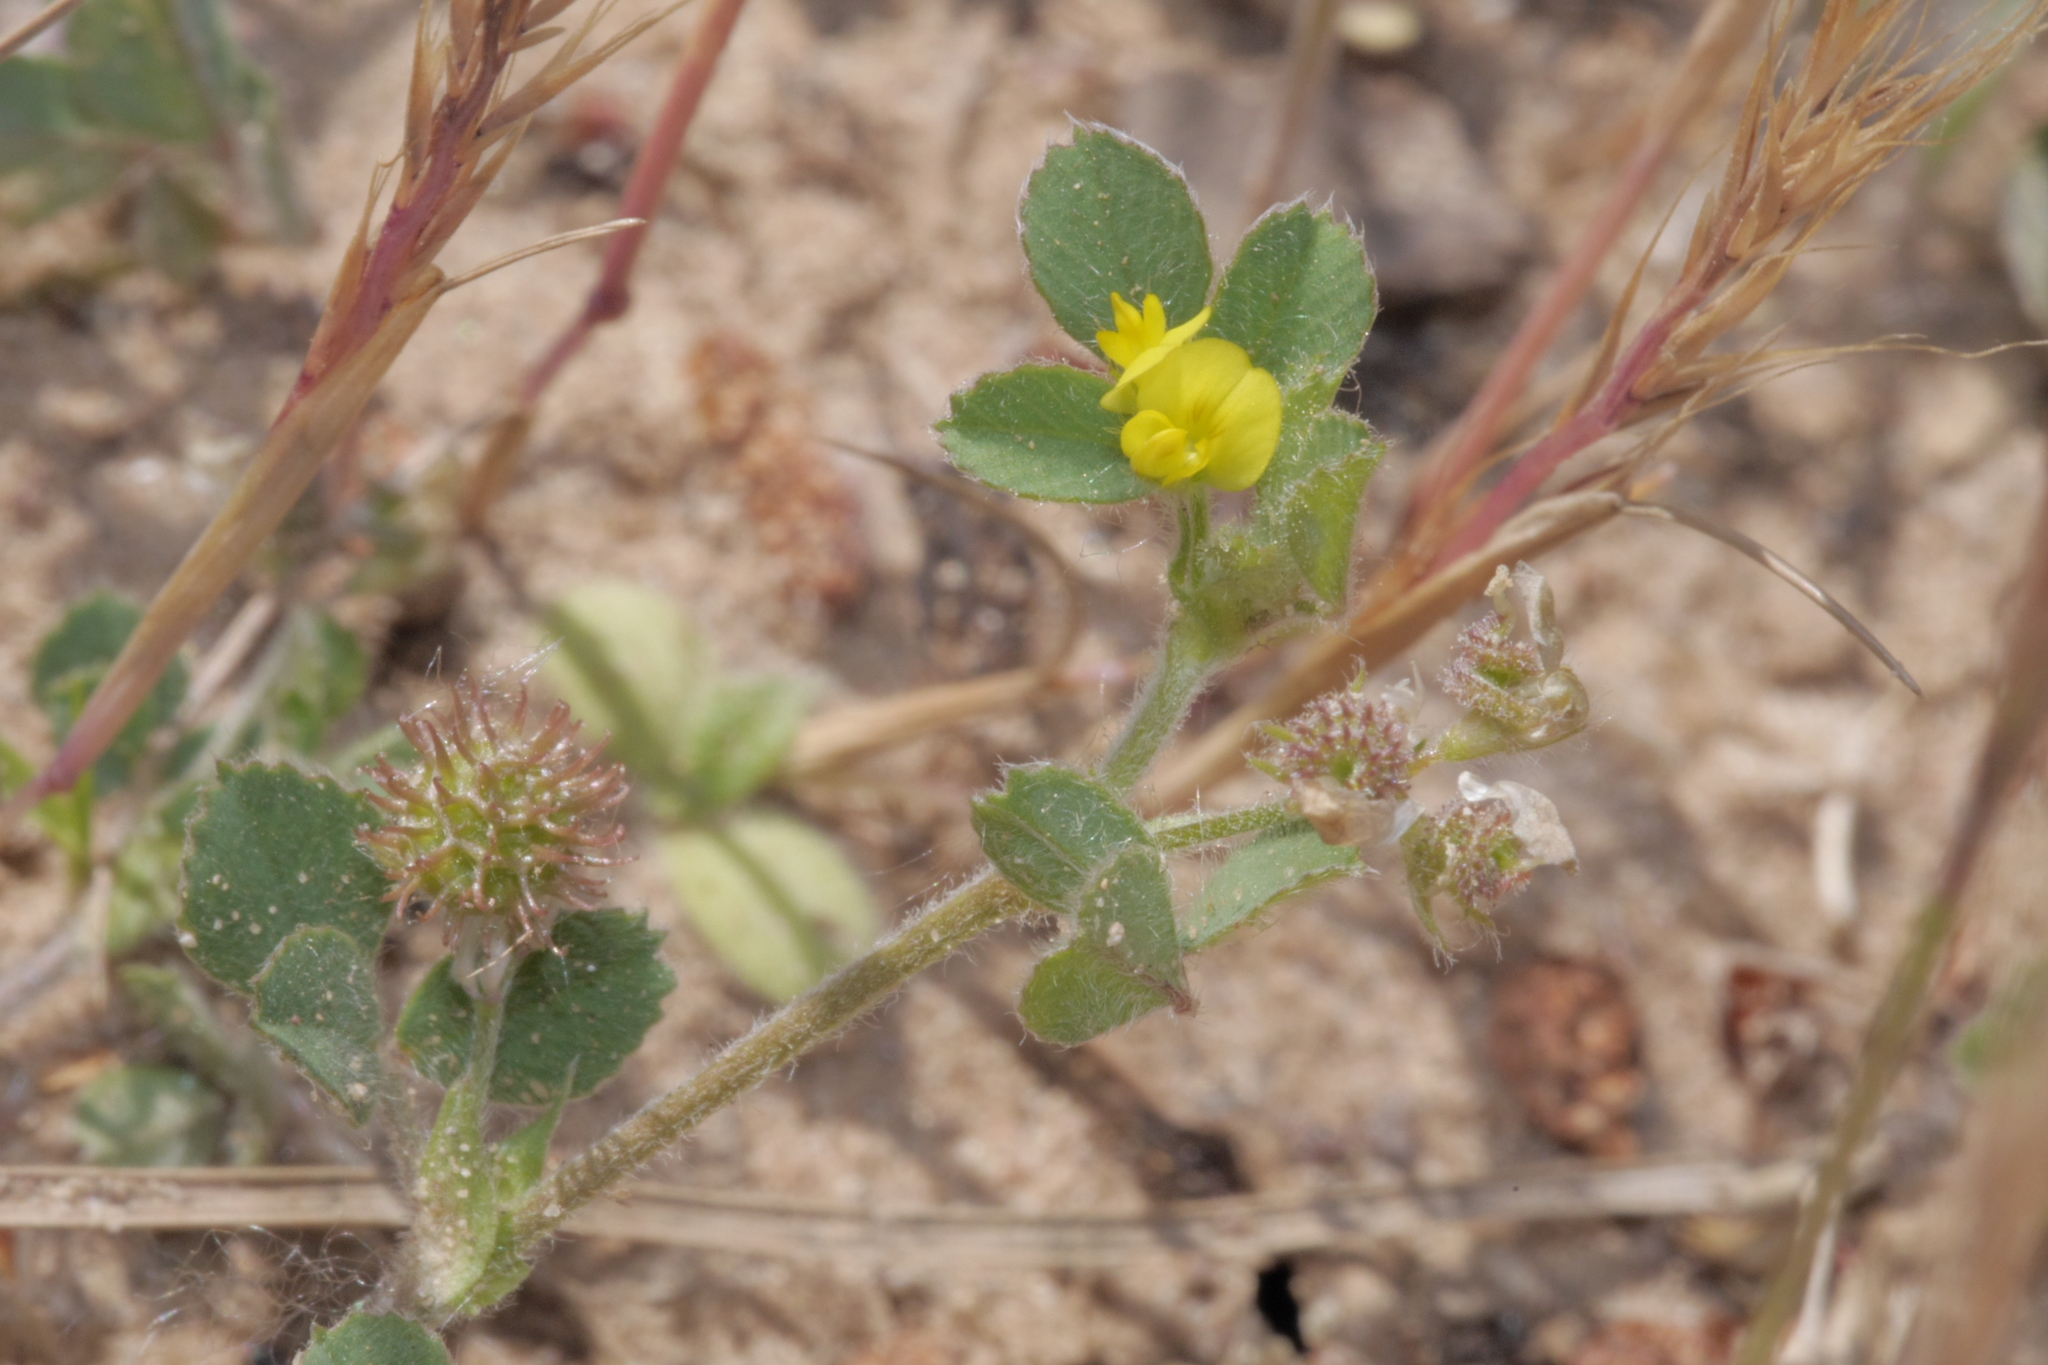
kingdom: Plantae
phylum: Tracheophyta
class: Magnoliopsida
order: Fabales
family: Fabaceae
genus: Medicago
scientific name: Medicago minima
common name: Little bur-clover
